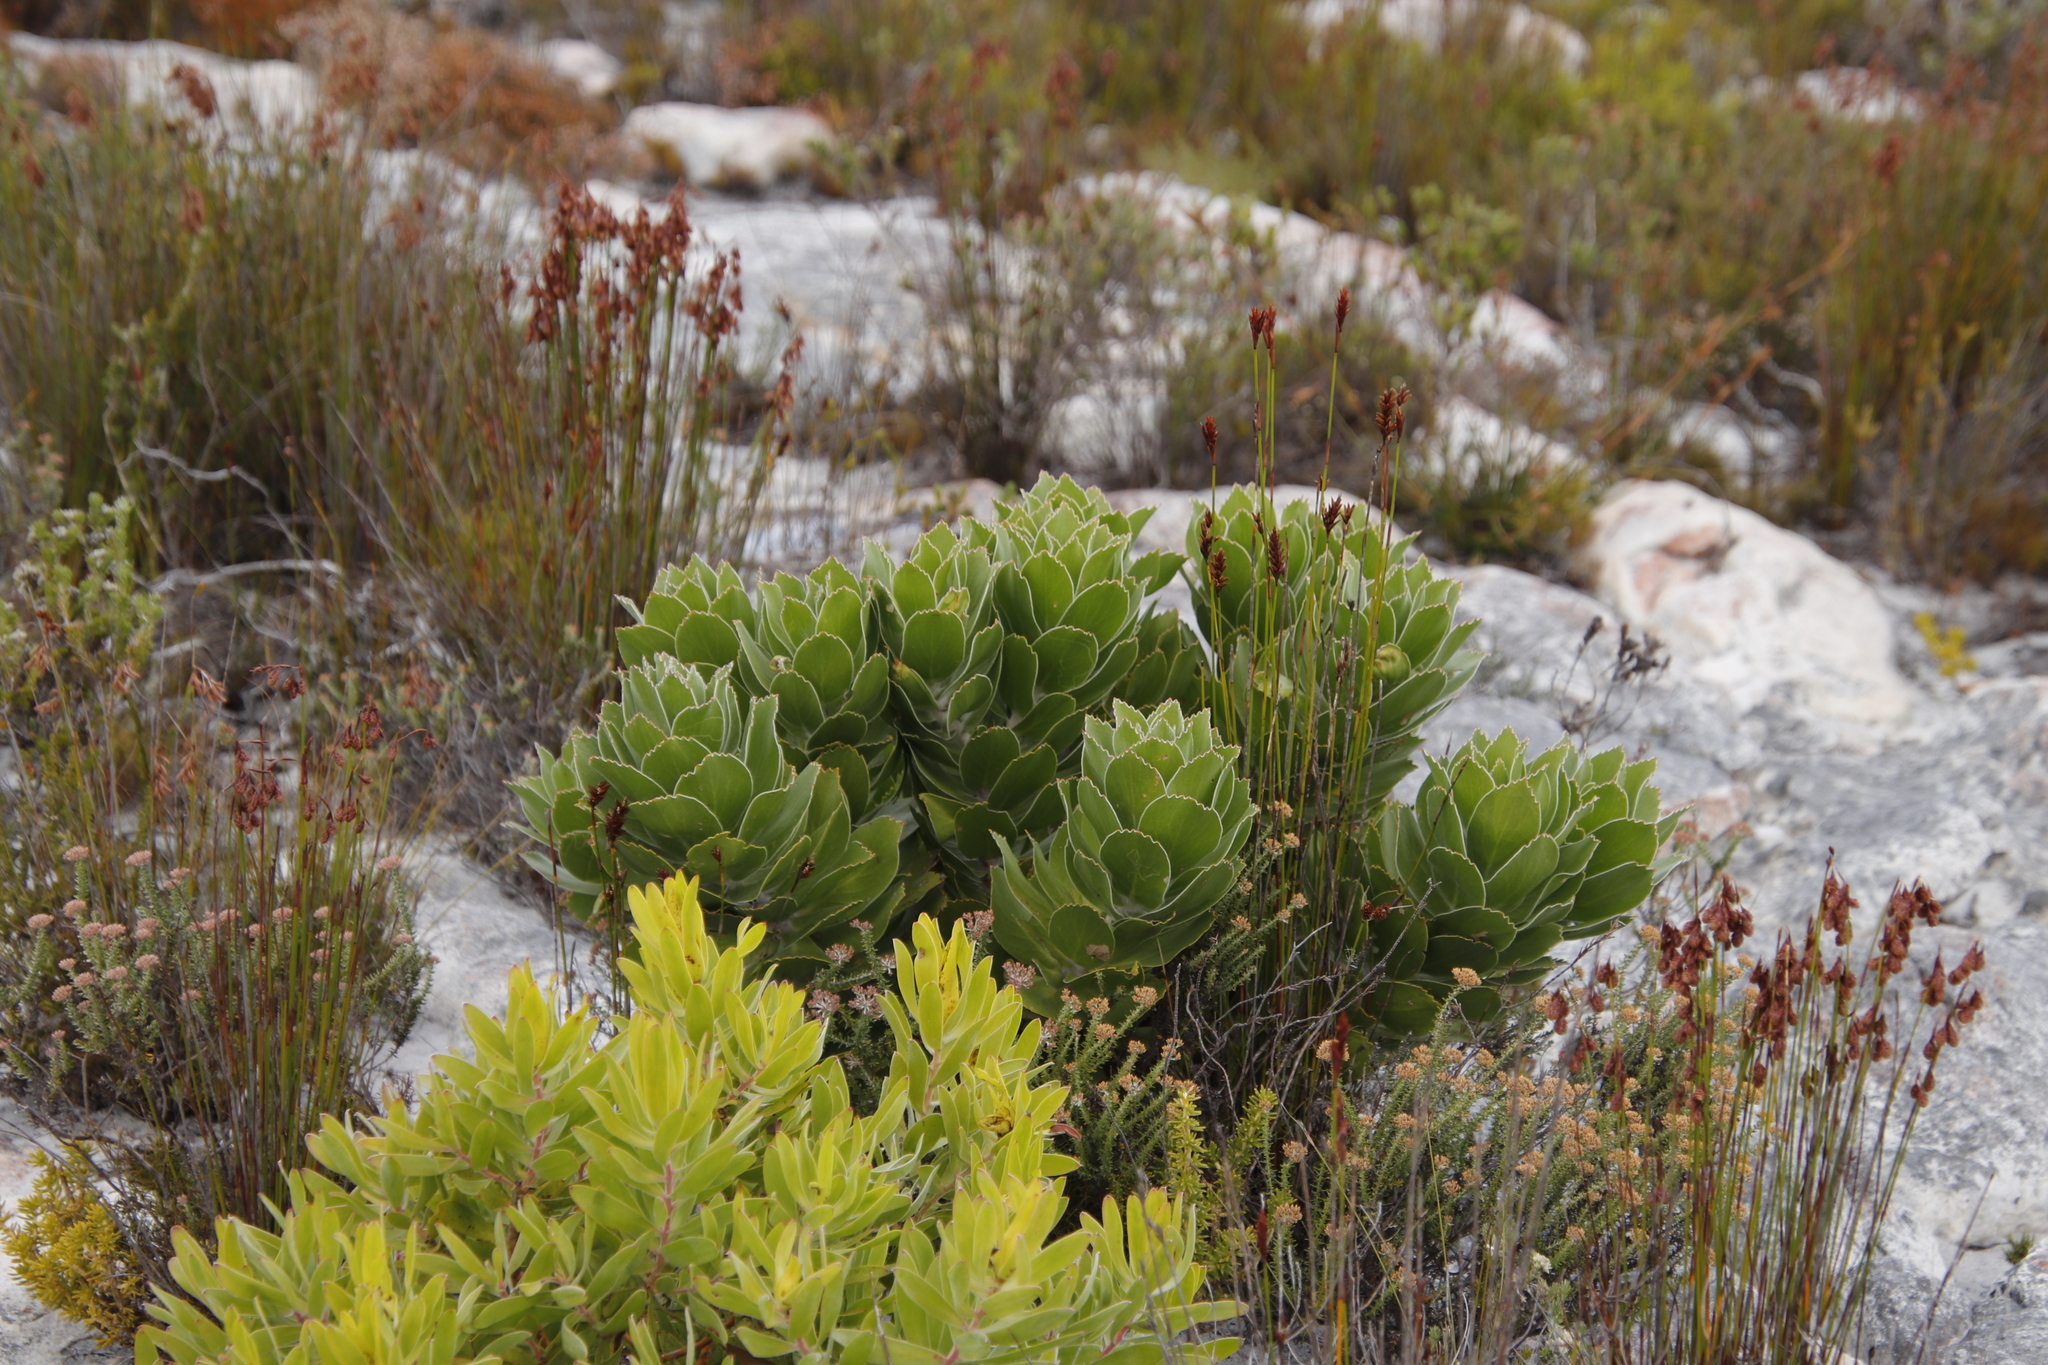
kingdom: Plantae
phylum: Tracheophyta
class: Magnoliopsida
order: Proteales
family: Proteaceae
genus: Leucospermum
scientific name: Leucospermum conocarpodendron
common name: Tree pincushion
